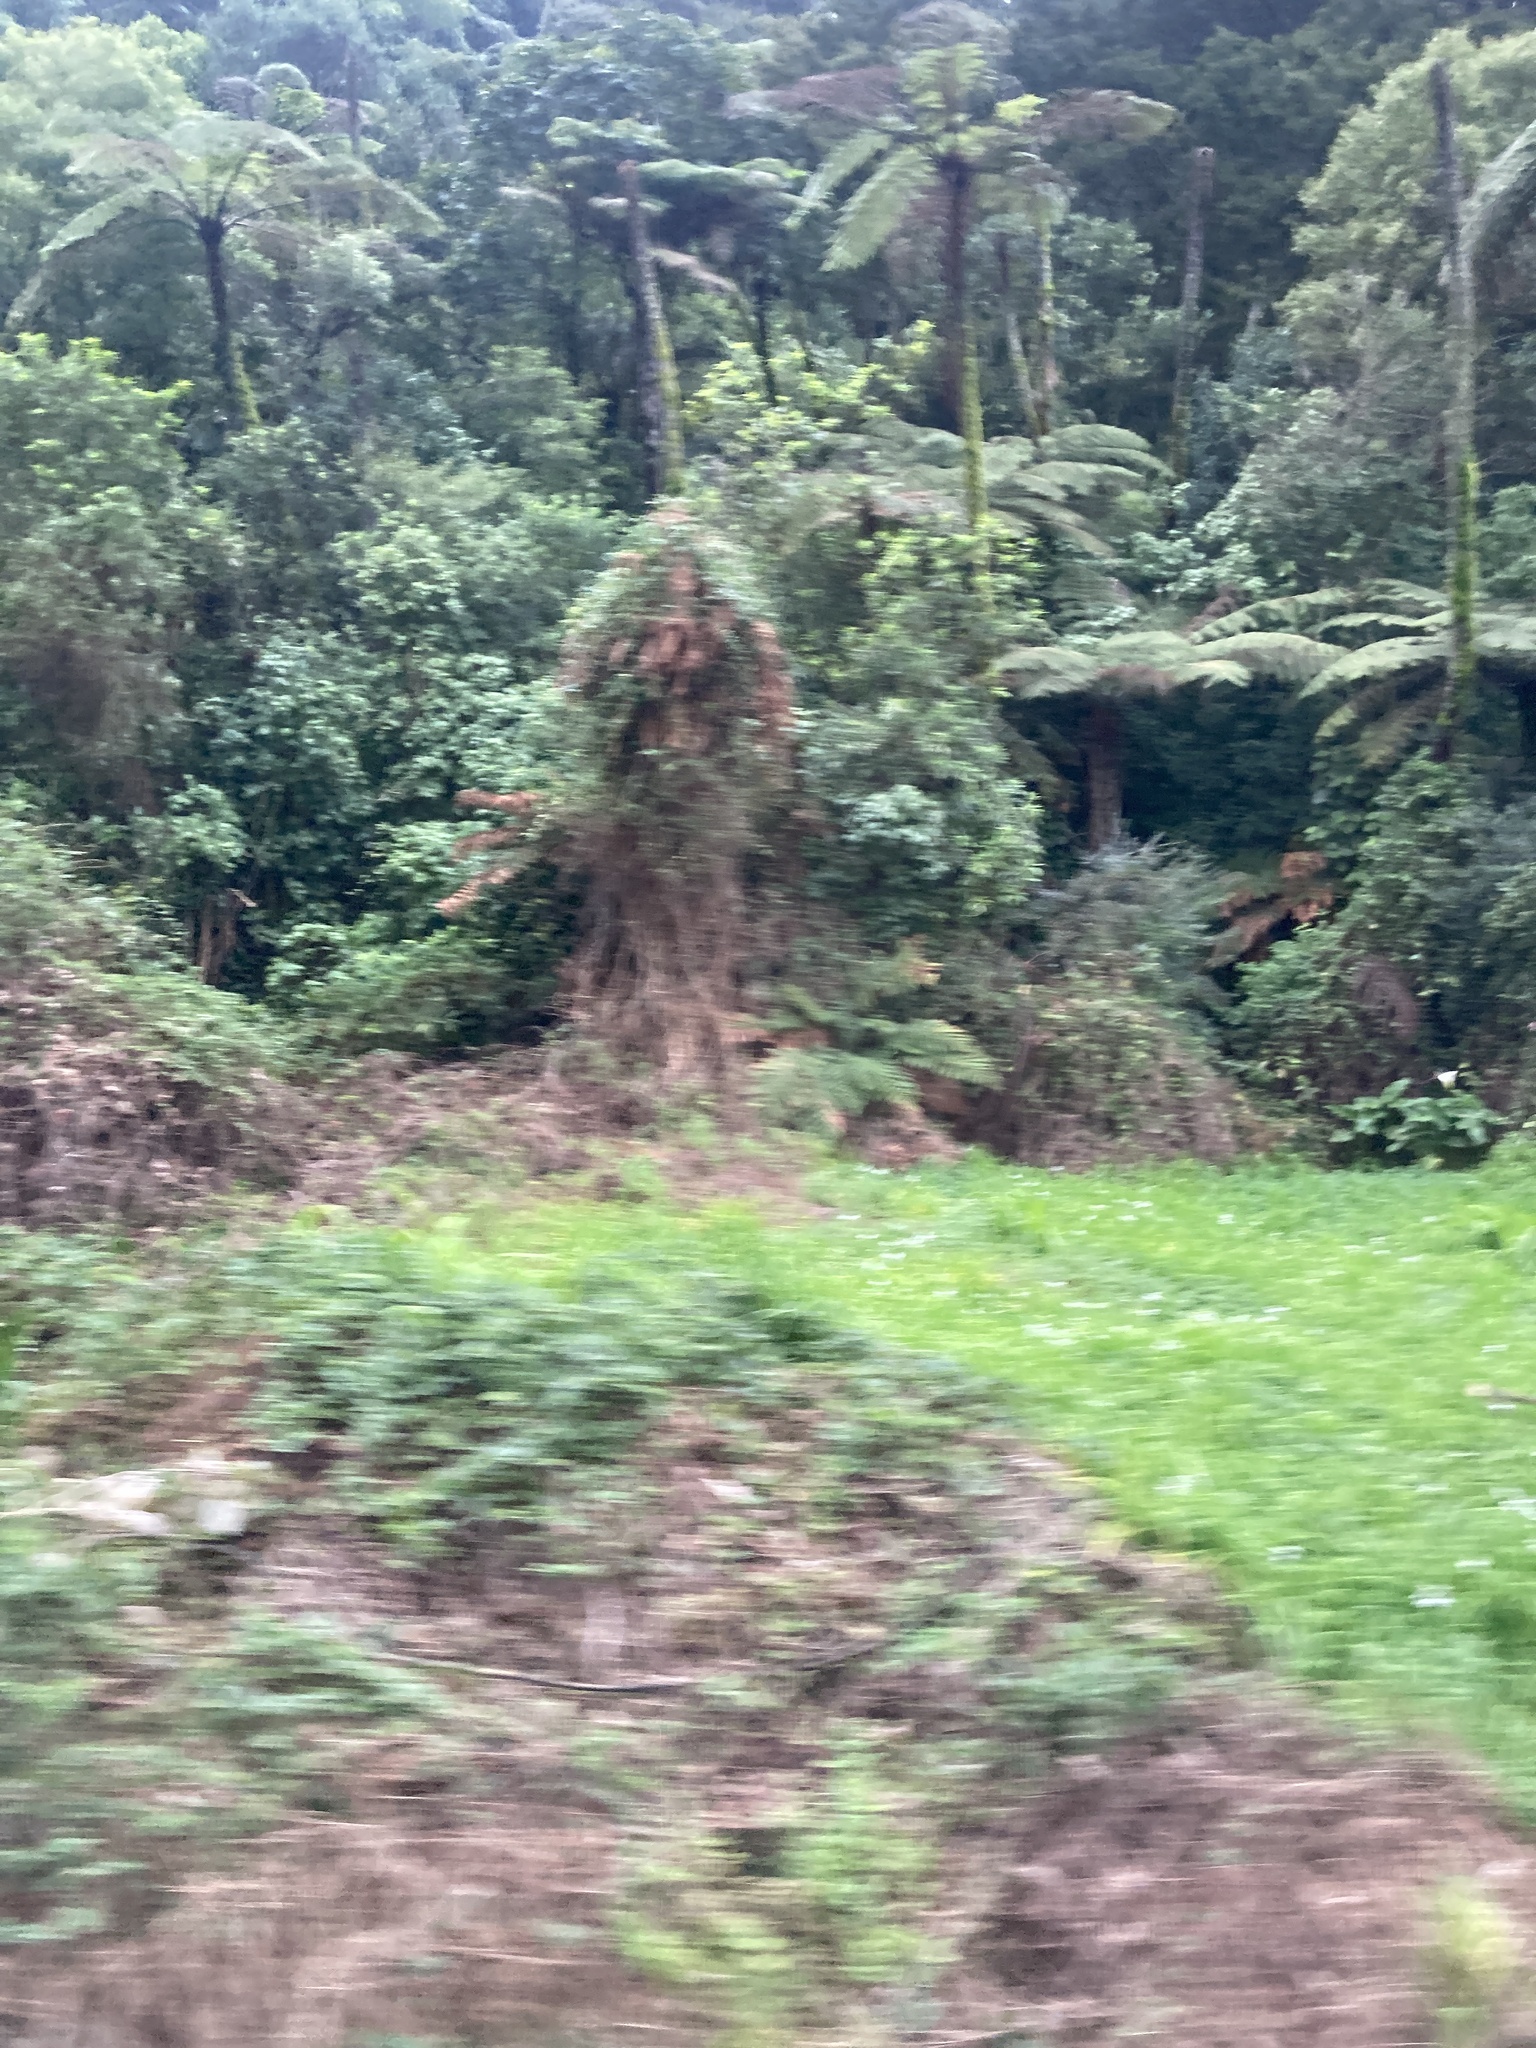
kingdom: Plantae
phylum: Tracheophyta
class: Polypodiopsida
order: Cyatheales
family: Cyatheaceae
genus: Sphaeropteris
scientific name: Sphaeropteris medullaris
